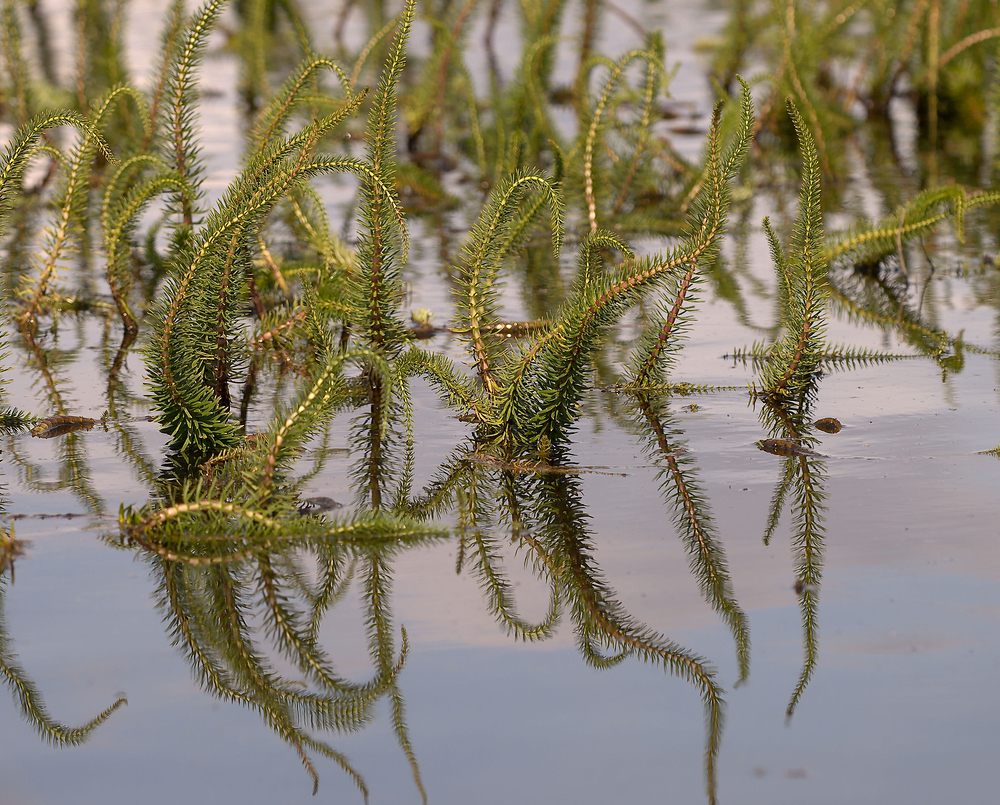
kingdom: Plantae
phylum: Tracheophyta
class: Magnoliopsida
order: Lamiales
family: Plantaginaceae
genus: Hippuris
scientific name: Hippuris vulgaris
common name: Mare's-tail
